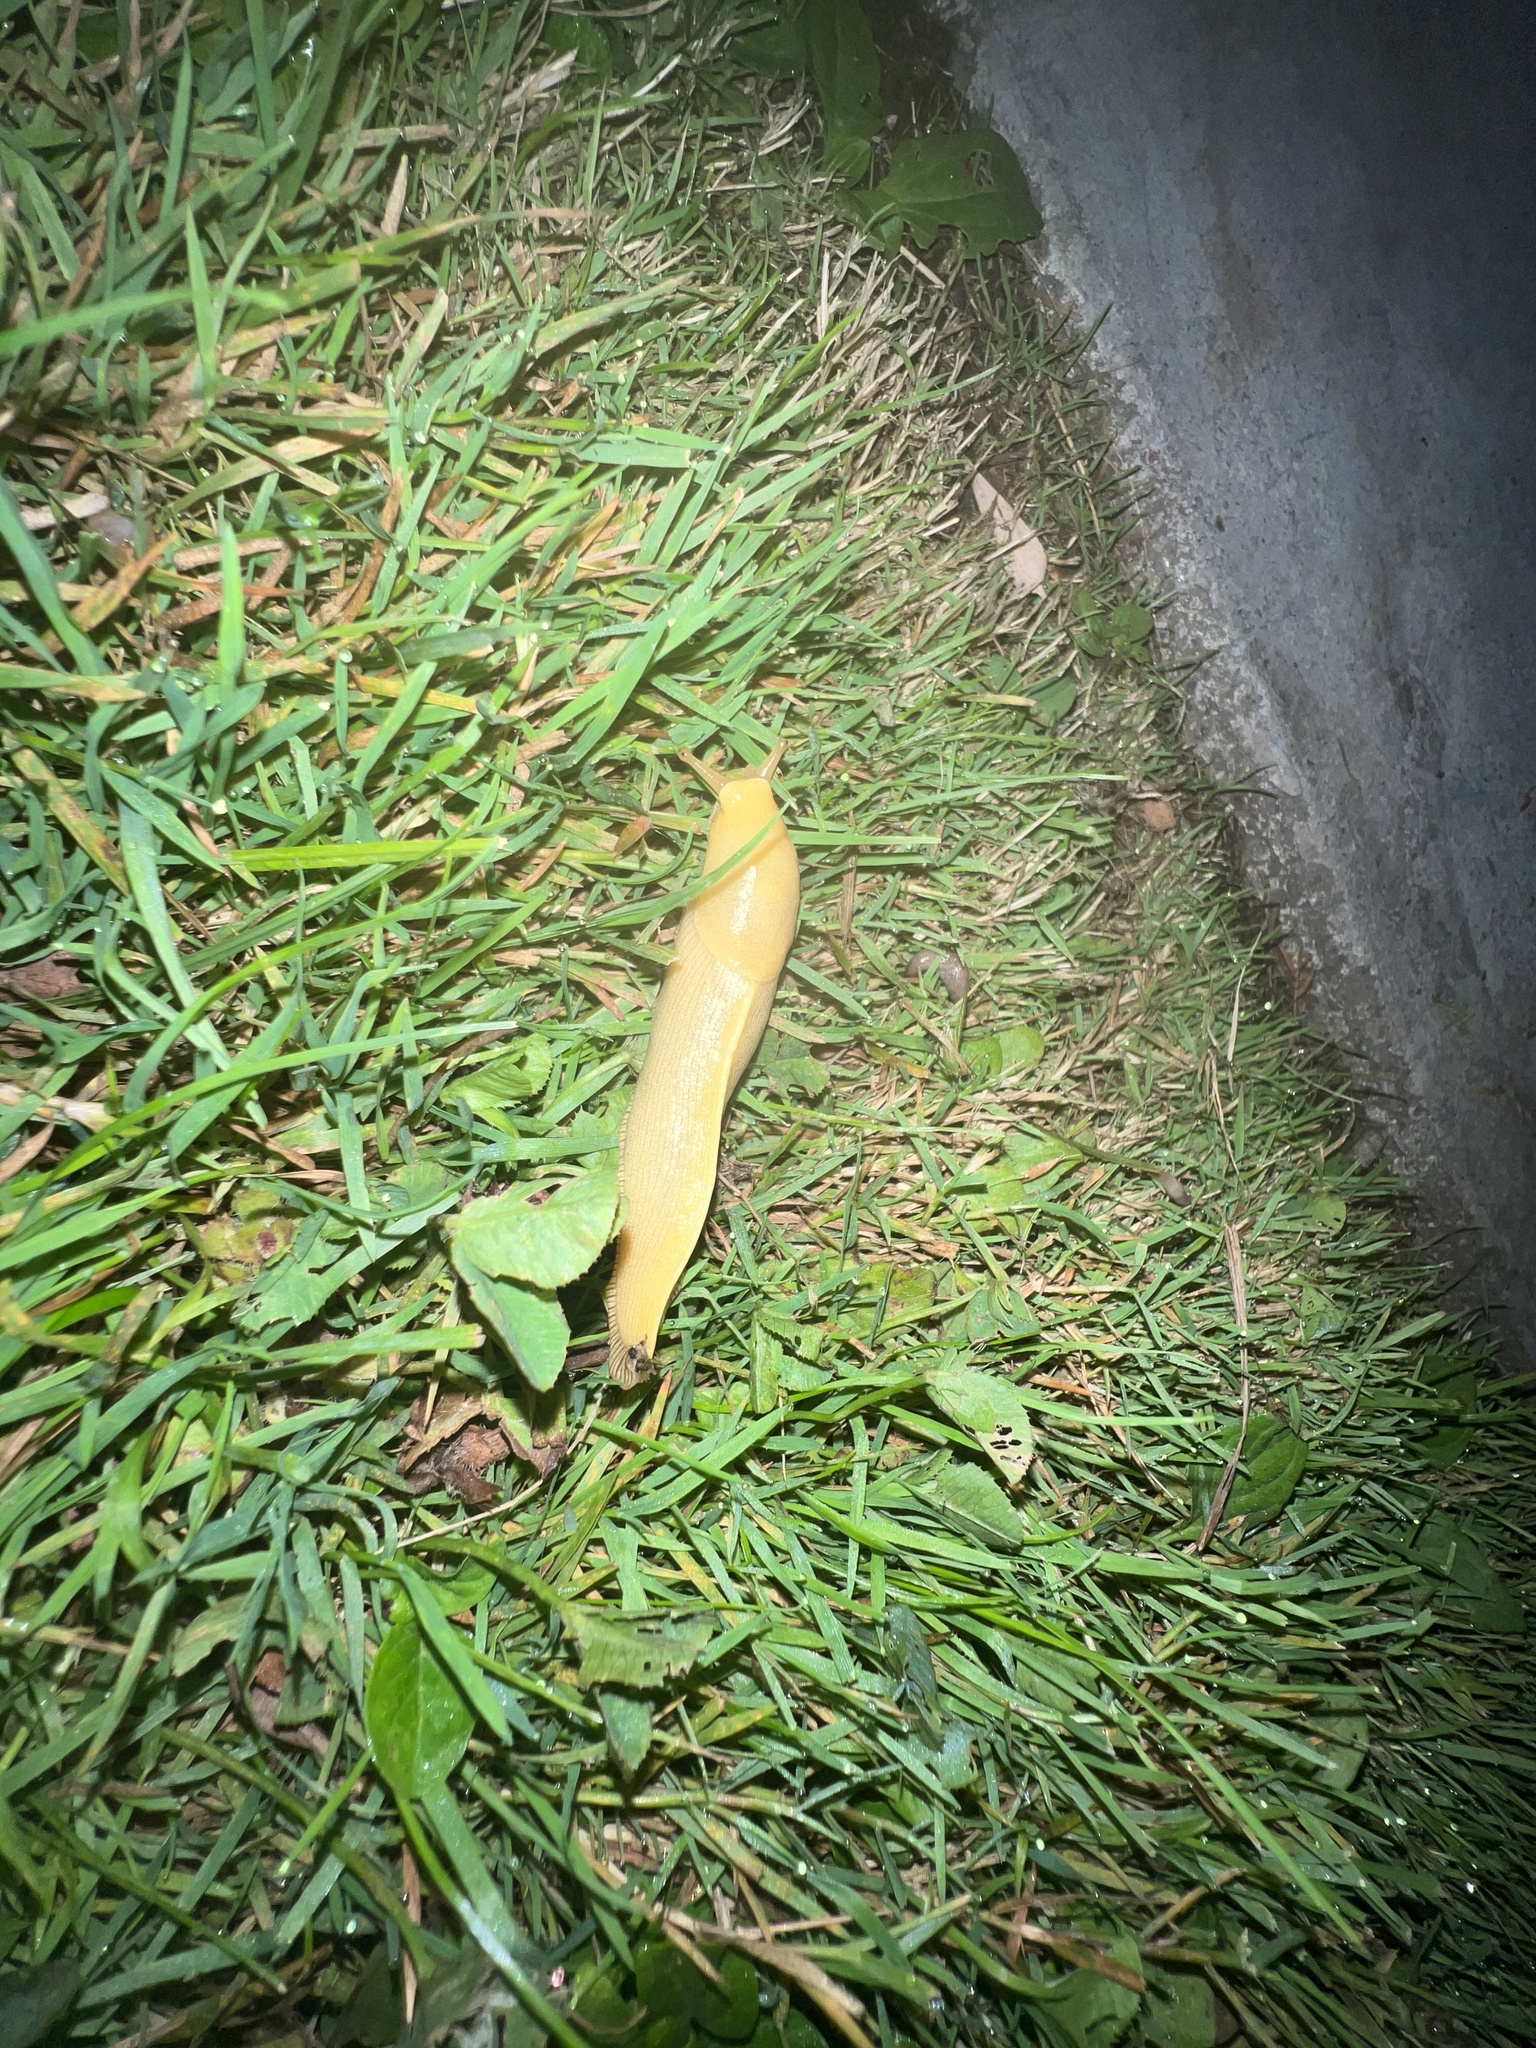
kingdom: Animalia
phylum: Mollusca
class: Gastropoda
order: Stylommatophora
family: Ariolimacidae
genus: Ariolimax
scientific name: Ariolimax columbianus
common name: Pacific banana slug
